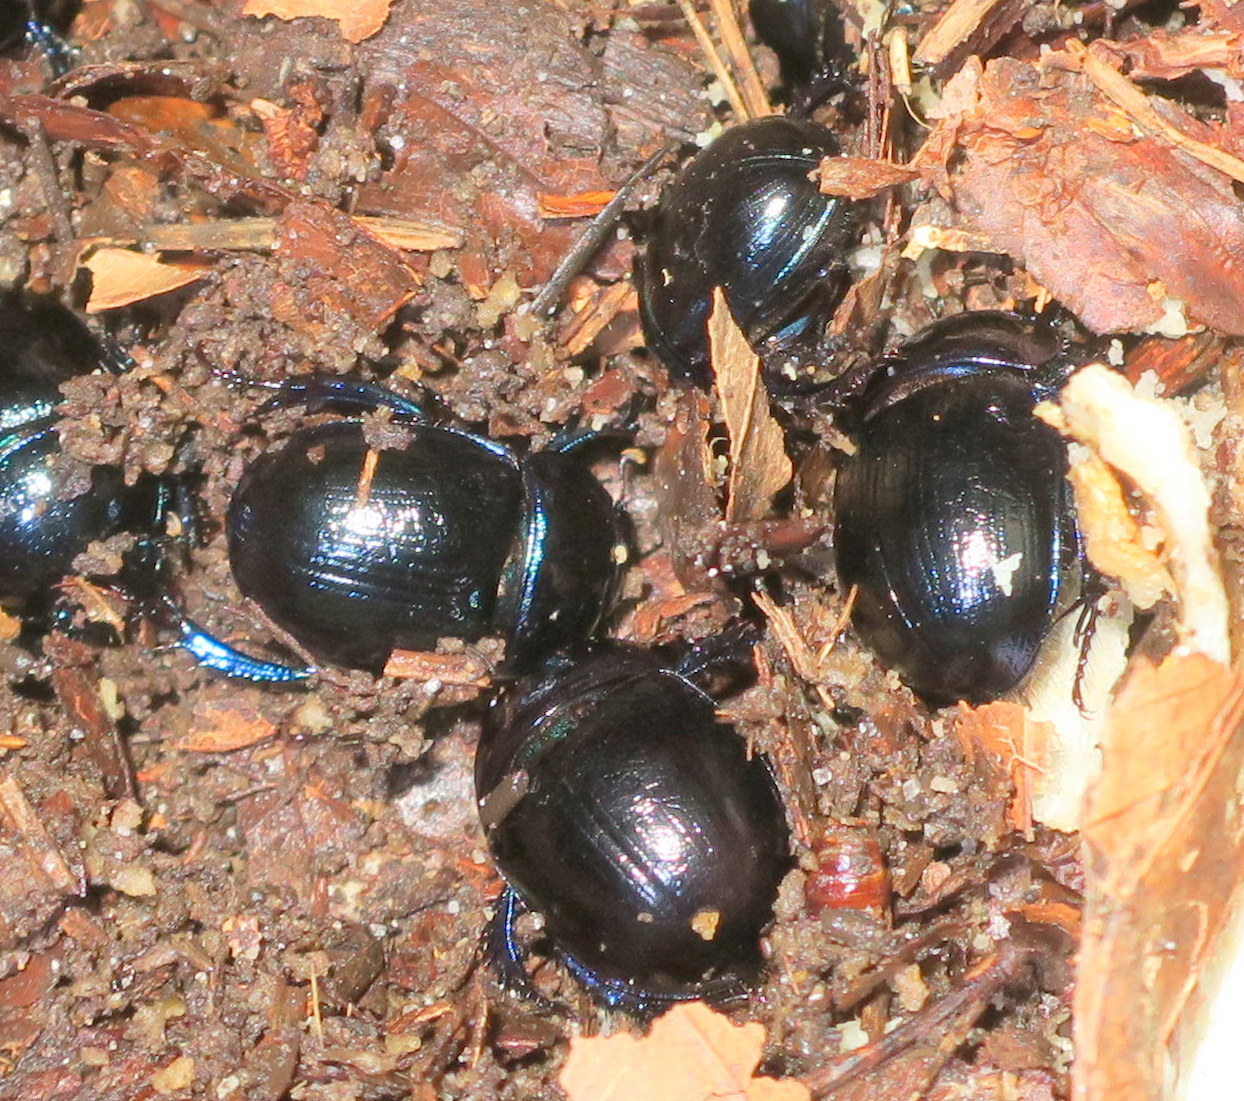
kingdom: Animalia
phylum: Arthropoda
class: Insecta
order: Coleoptera
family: Geotrupidae
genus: Anoplotrupes
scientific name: Anoplotrupes stercorosus
